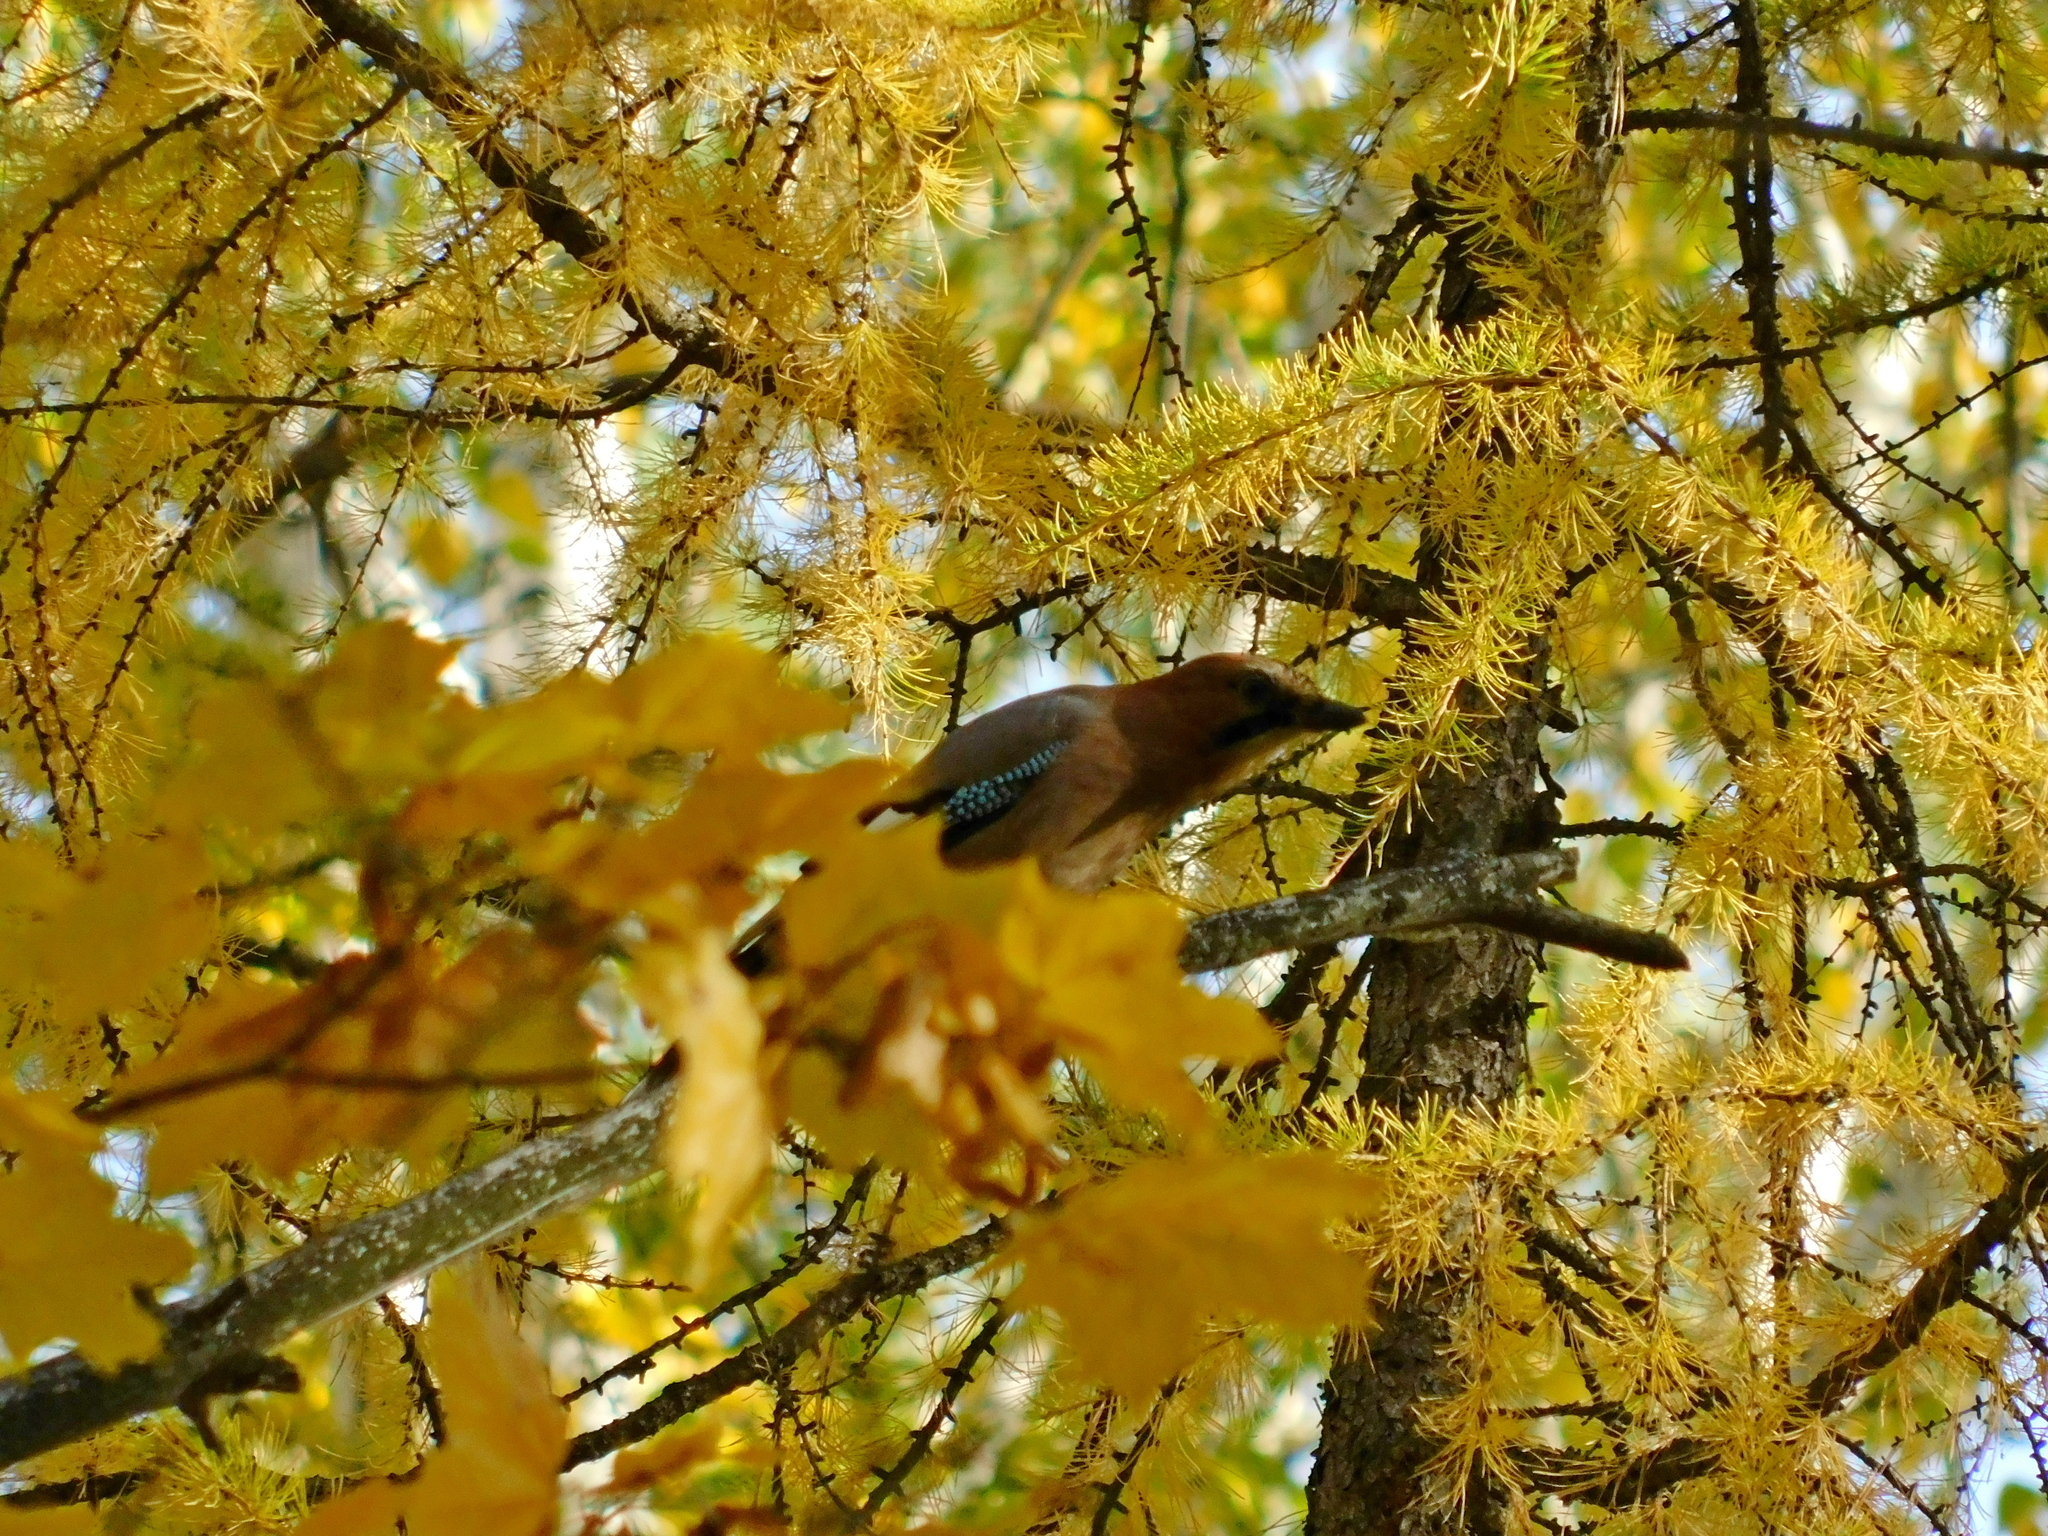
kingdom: Animalia
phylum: Chordata
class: Aves
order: Passeriformes
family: Corvidae
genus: Garrulus
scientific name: Garrulus glandarius
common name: Eurasian jay
